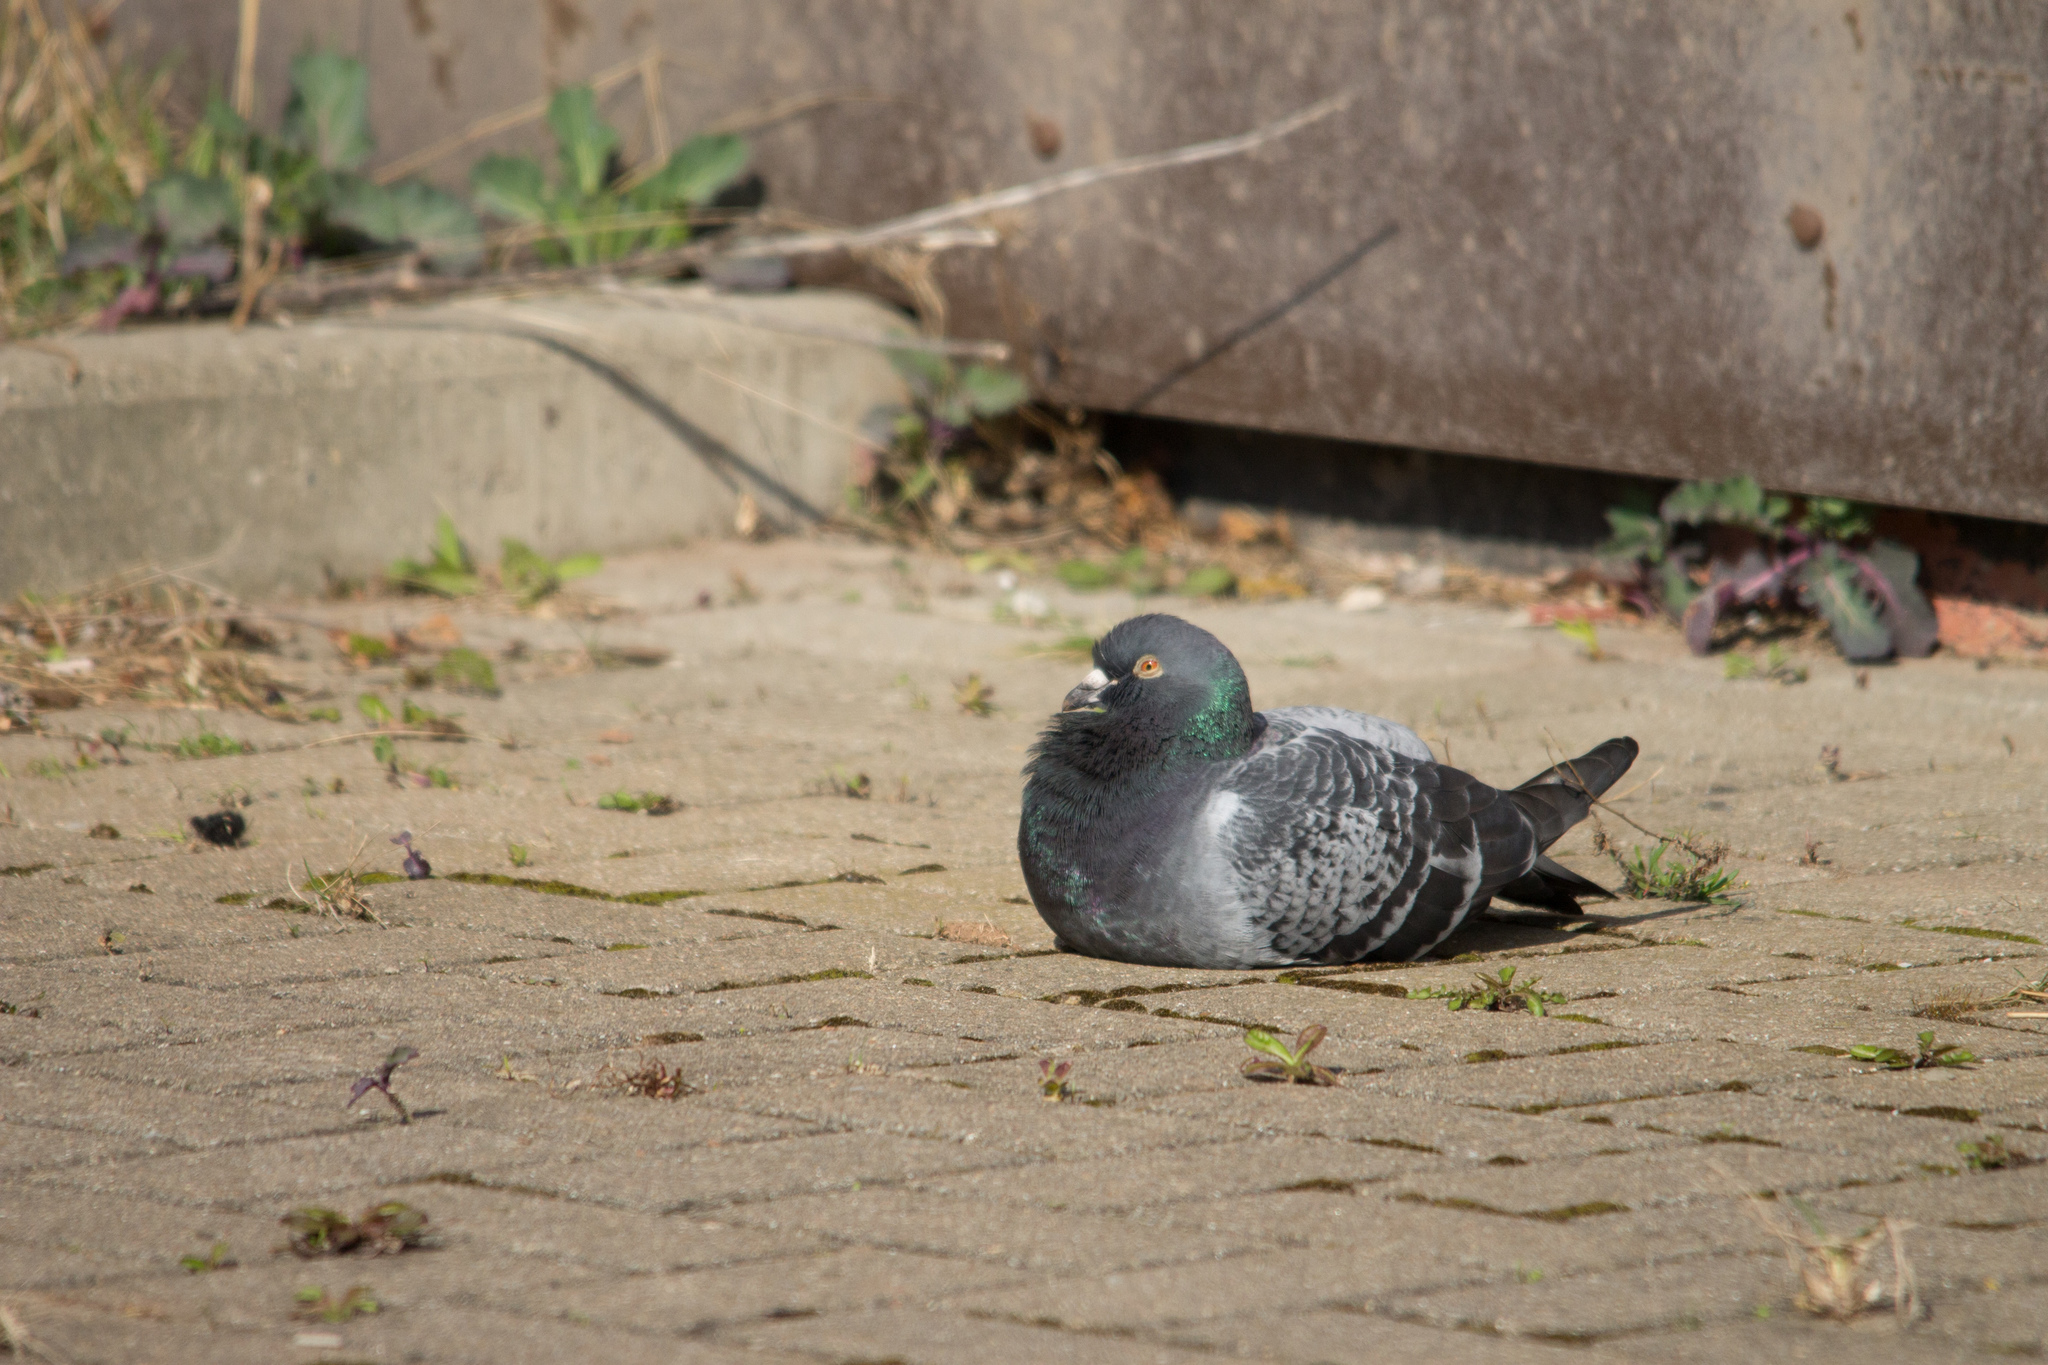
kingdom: Animalia
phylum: Chordata
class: Aves
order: Columbiformes
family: Columbidae
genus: Columba
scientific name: Columba livia
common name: Rock pigeon
